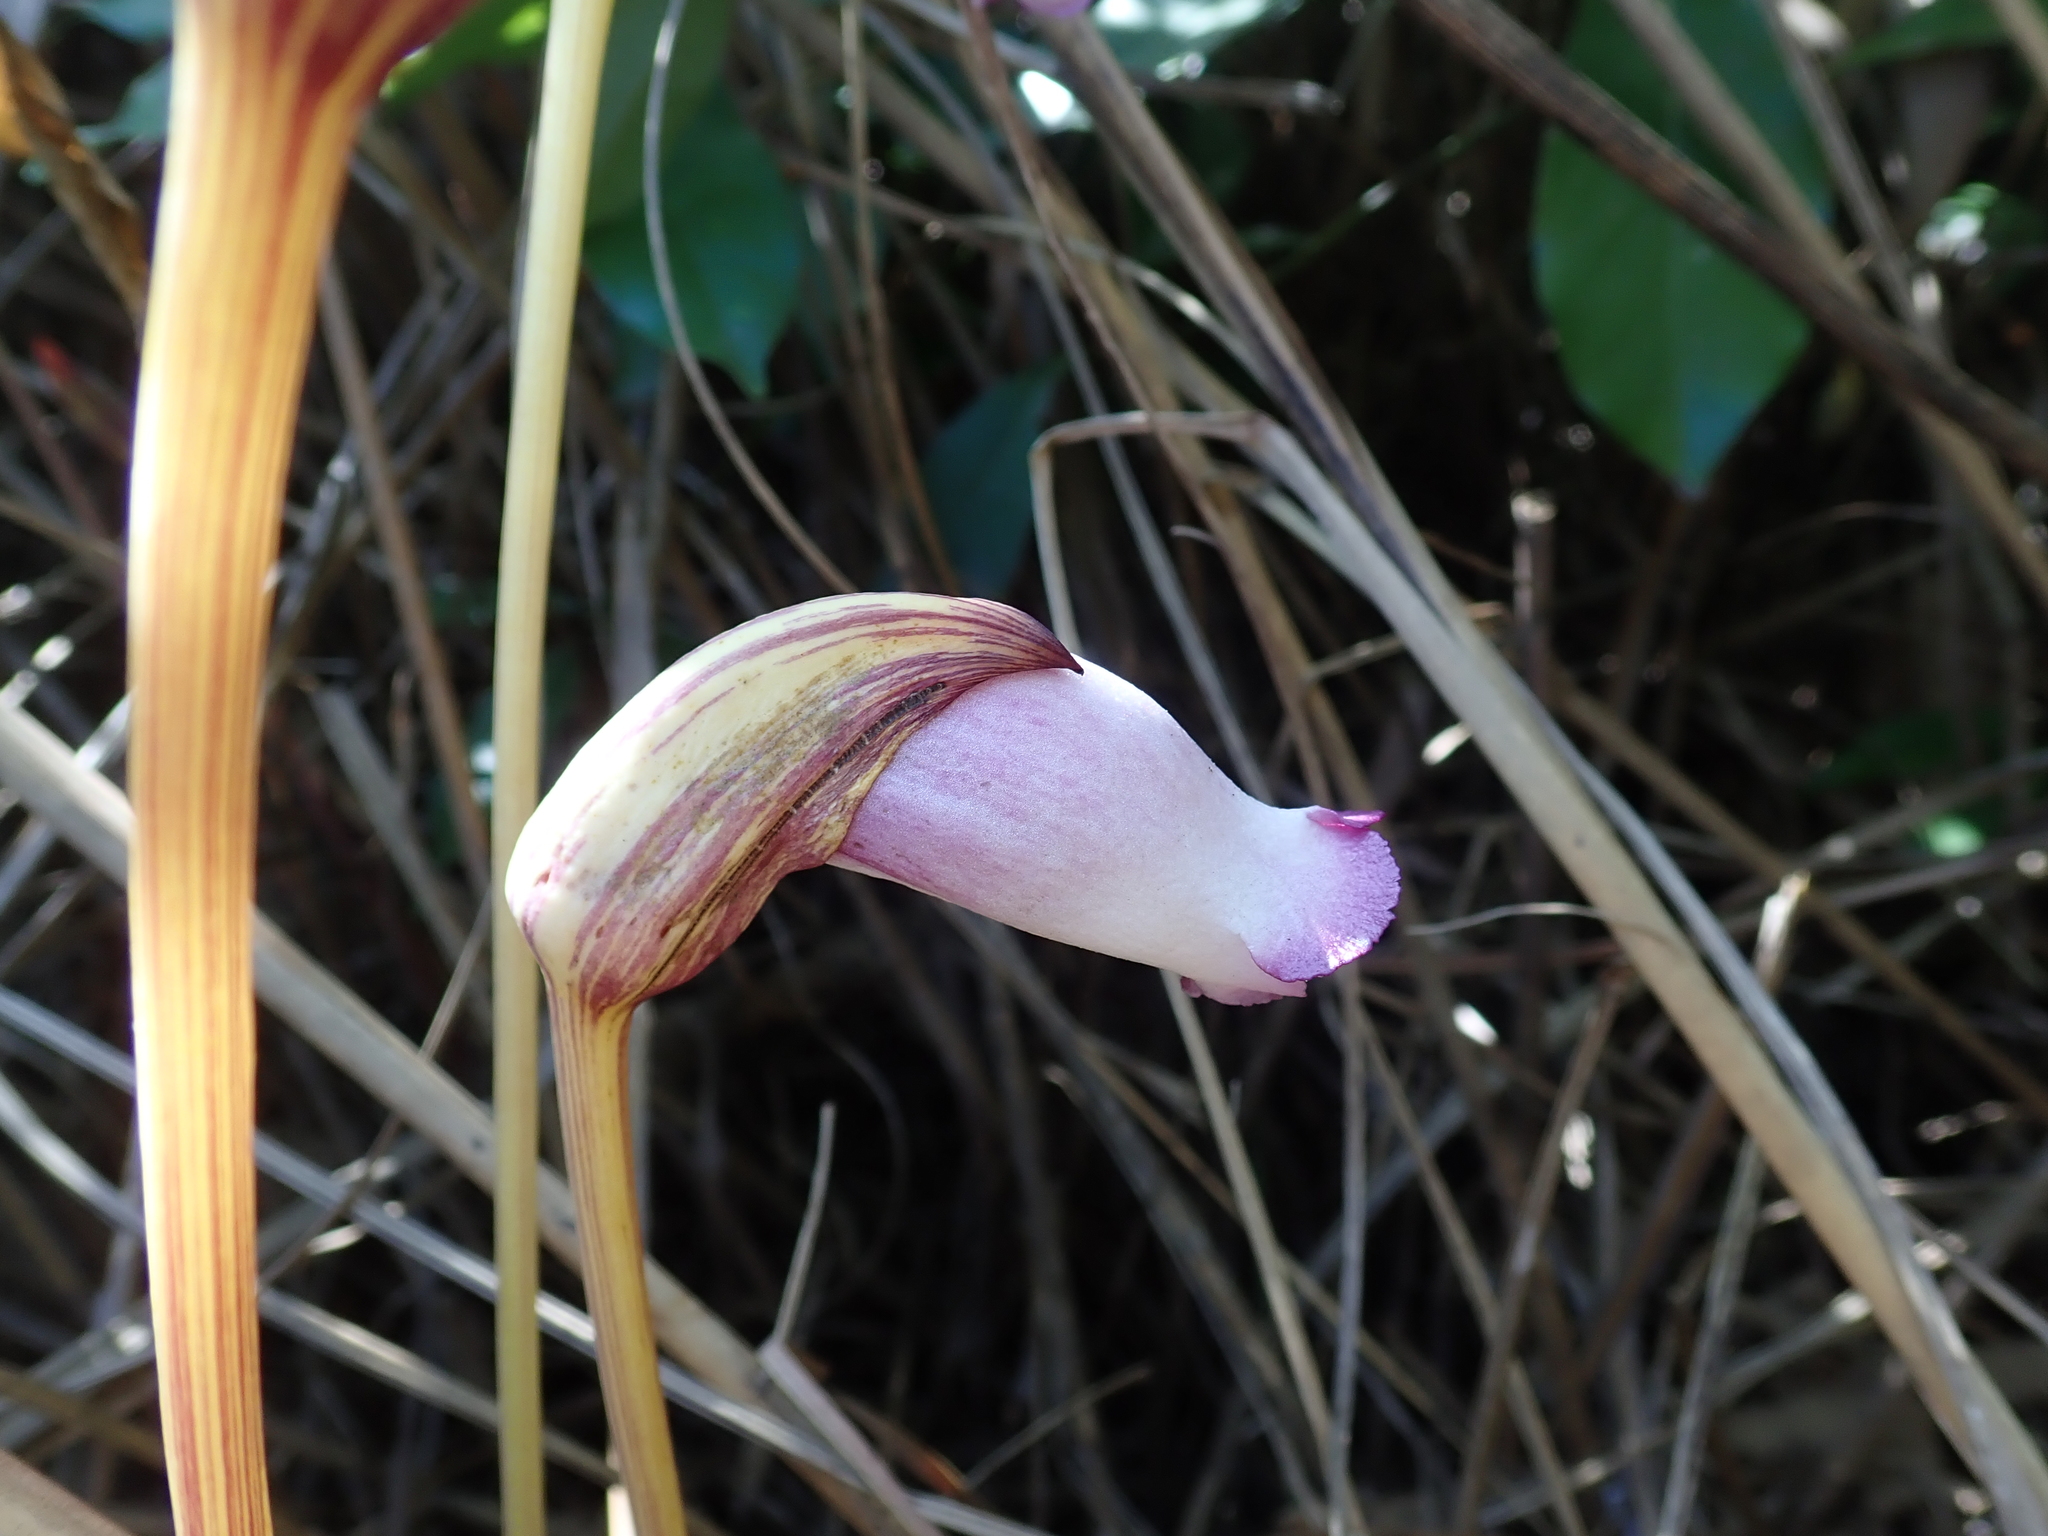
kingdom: Plantae
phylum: Tracheophyta
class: Magnoliopsida
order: Lamiales
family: Orobanchaceae
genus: Aeginetia
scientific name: Aeginetia indica
